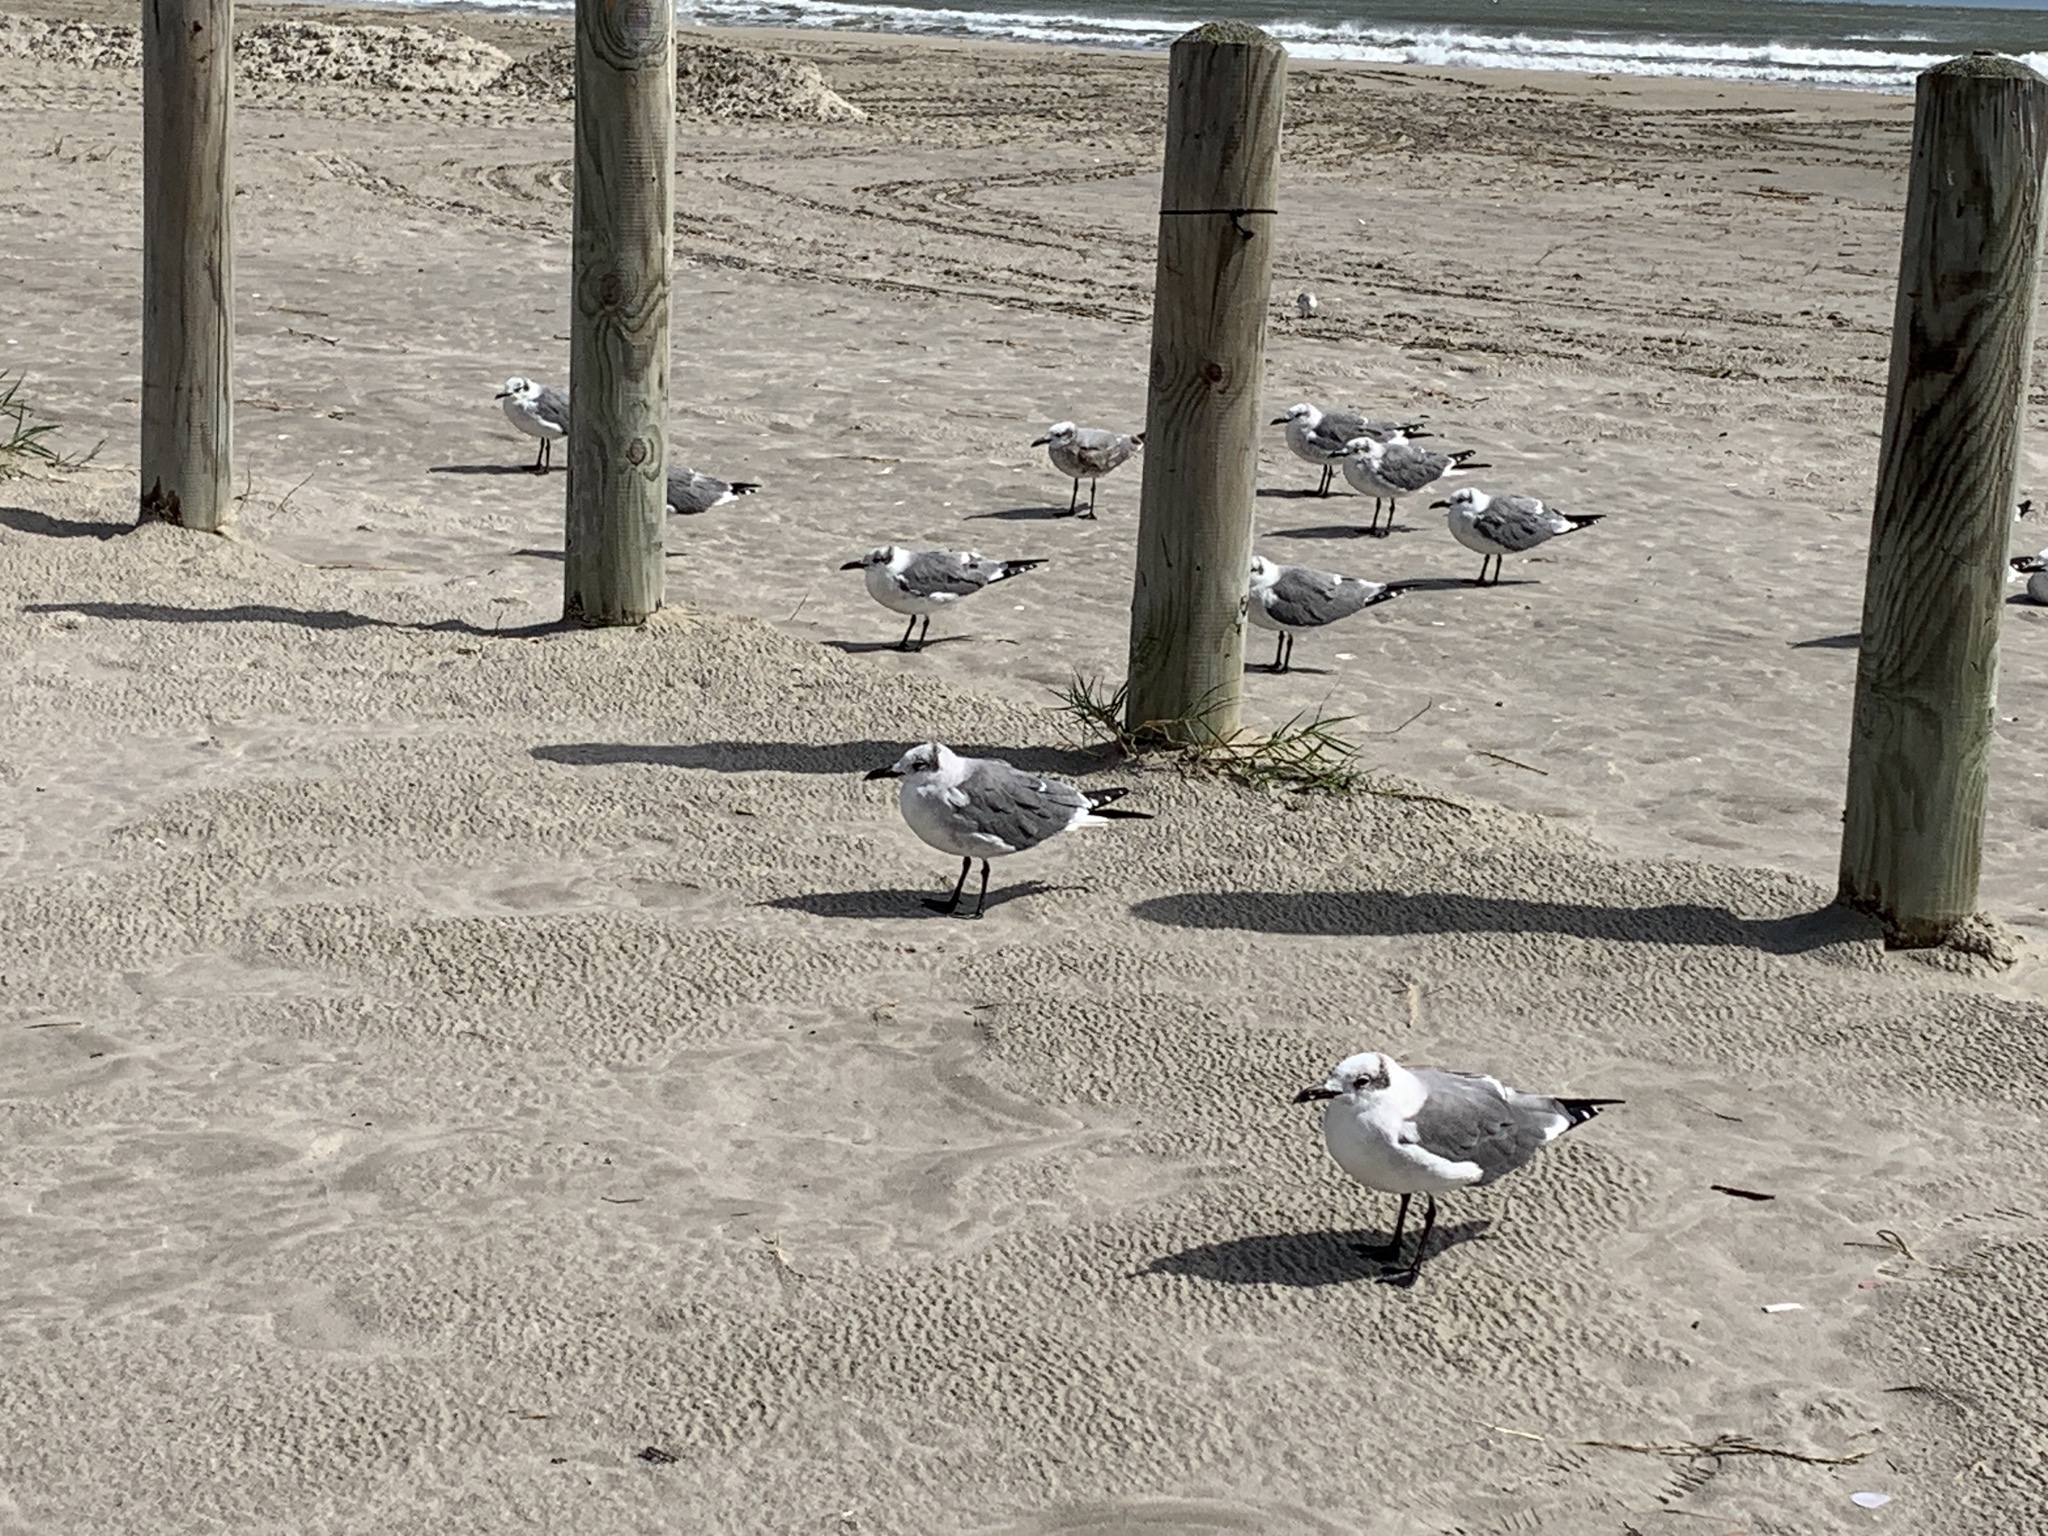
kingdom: Animalia
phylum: Chordata
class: Aves
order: Charadriiformes
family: Laridae
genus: Leucophaeus
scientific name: Leucophaeus atricilla
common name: Laughing gull
